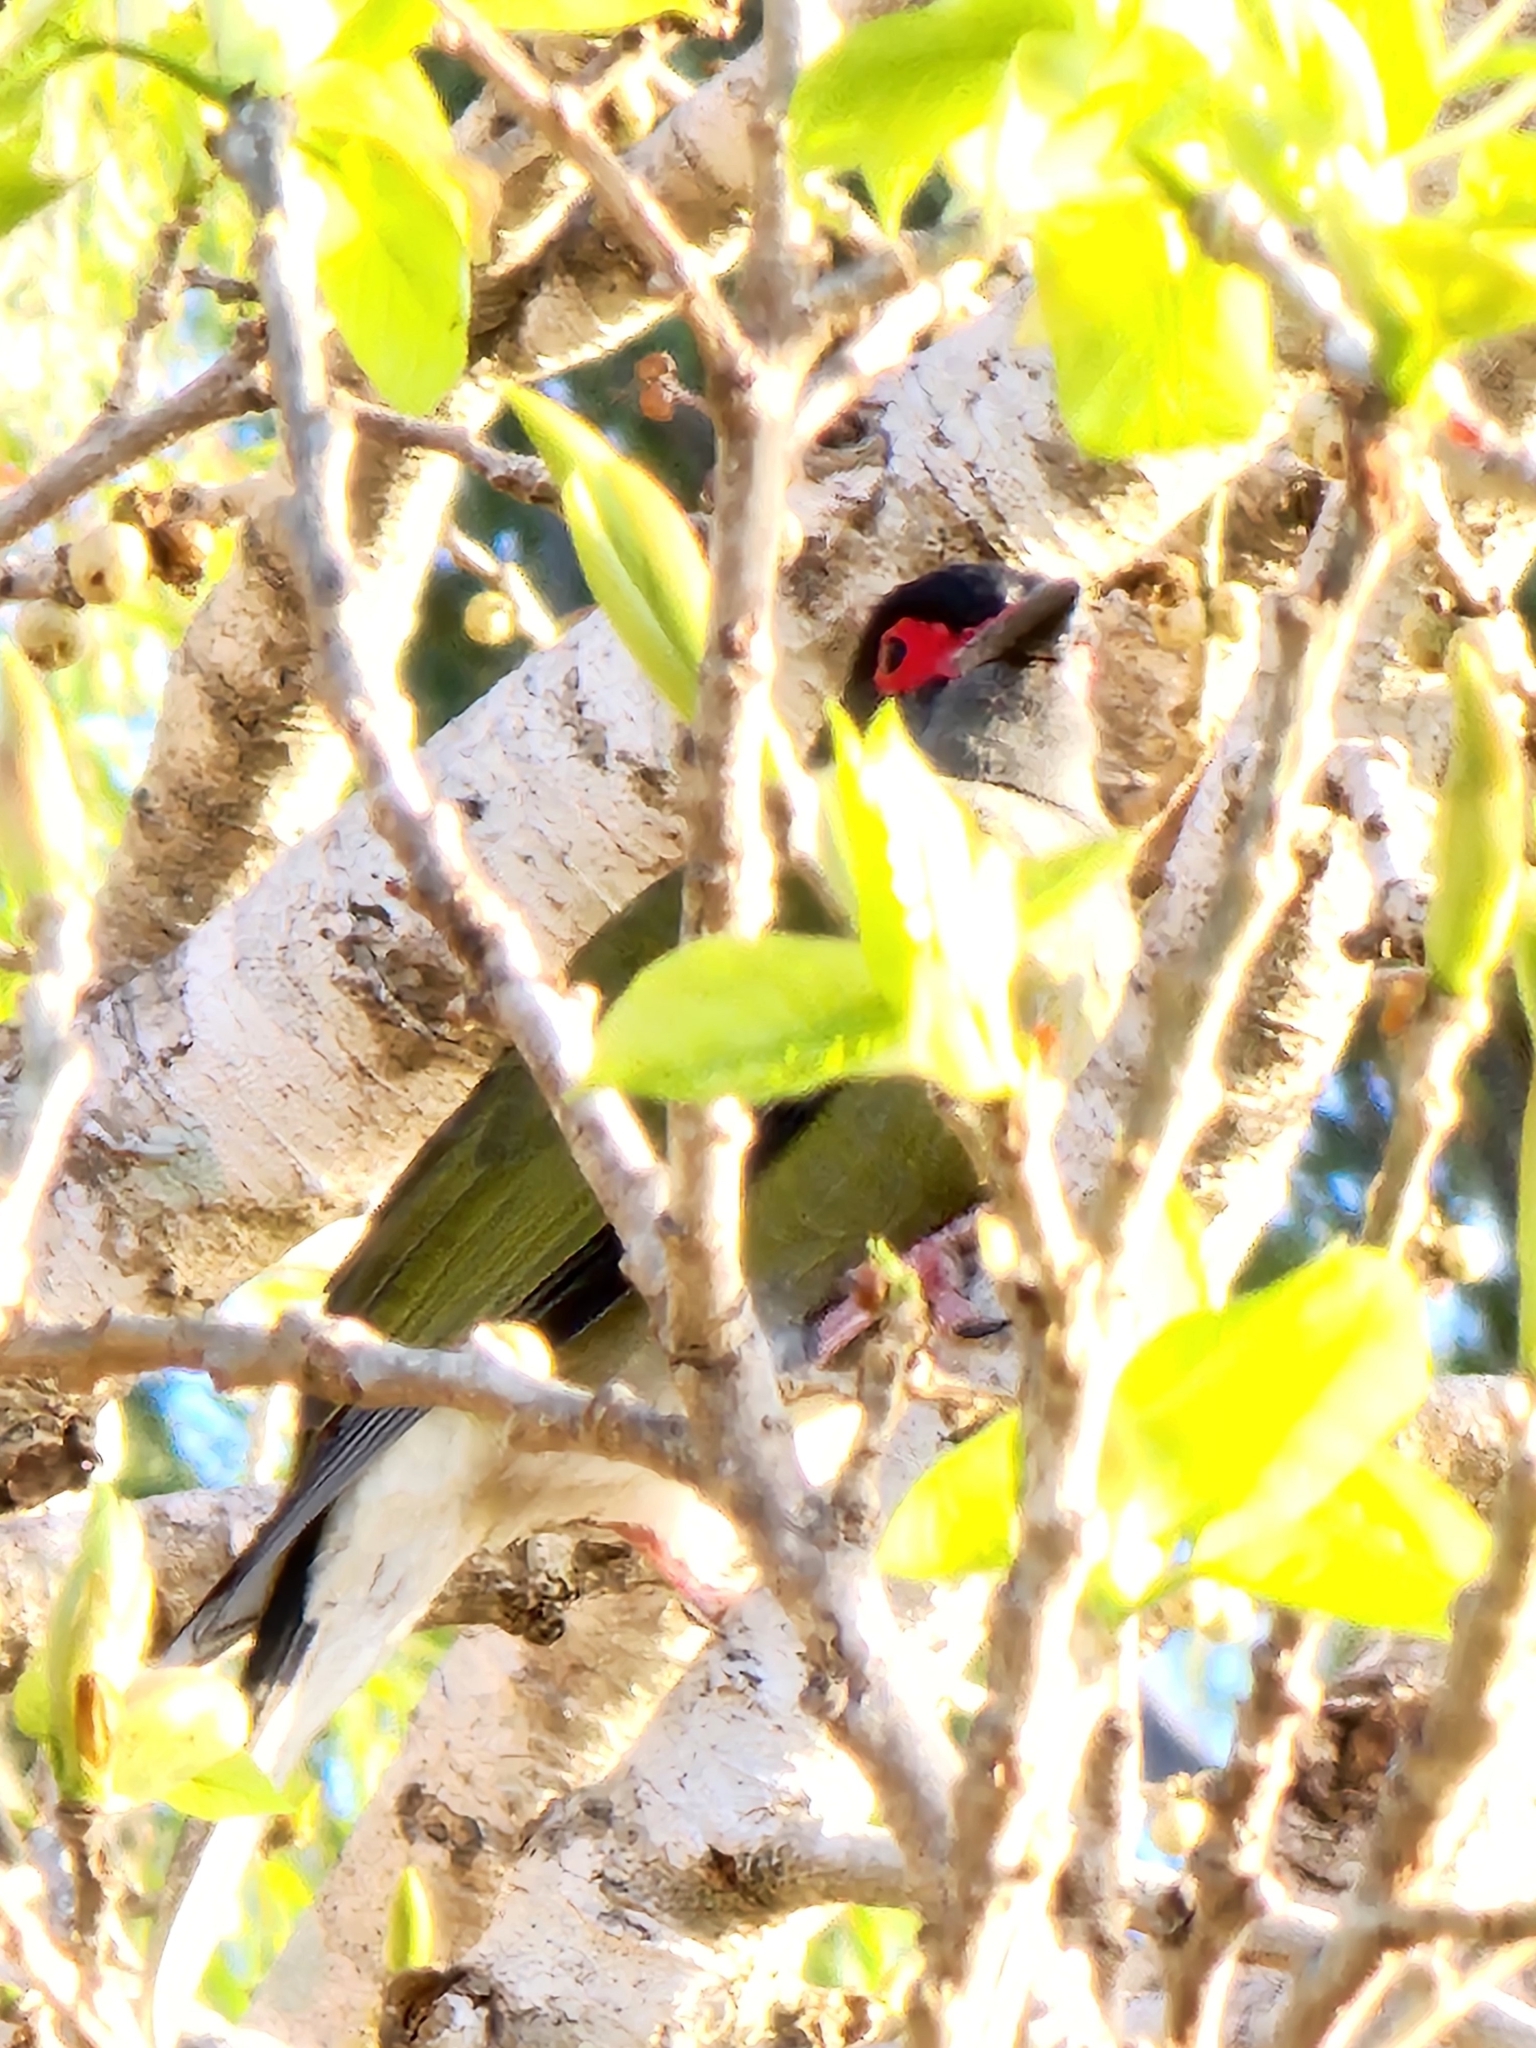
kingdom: Animalia
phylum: Chordata
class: Aves
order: Passeriformes
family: Oriolidae
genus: Sphecotheres
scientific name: Sphecotheres vieilloti
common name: Australasian figbird
